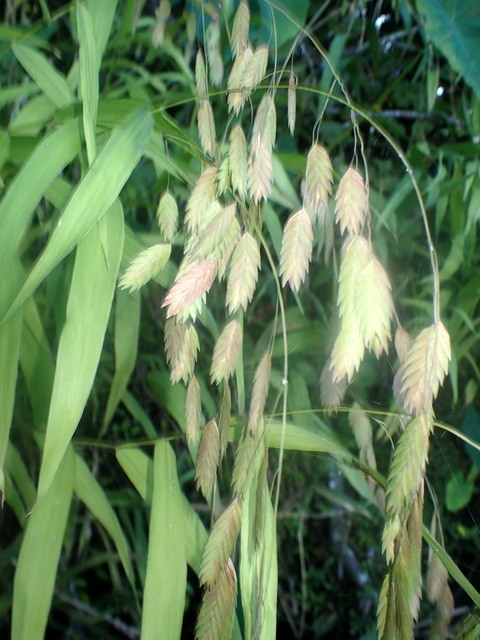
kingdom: Plantae
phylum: Tracheophyta
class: Liliopsida
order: Poales
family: Poaceae
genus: Chasmanthium
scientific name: Chasmanthium latifolium
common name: Broad-leaved chasmanthium
